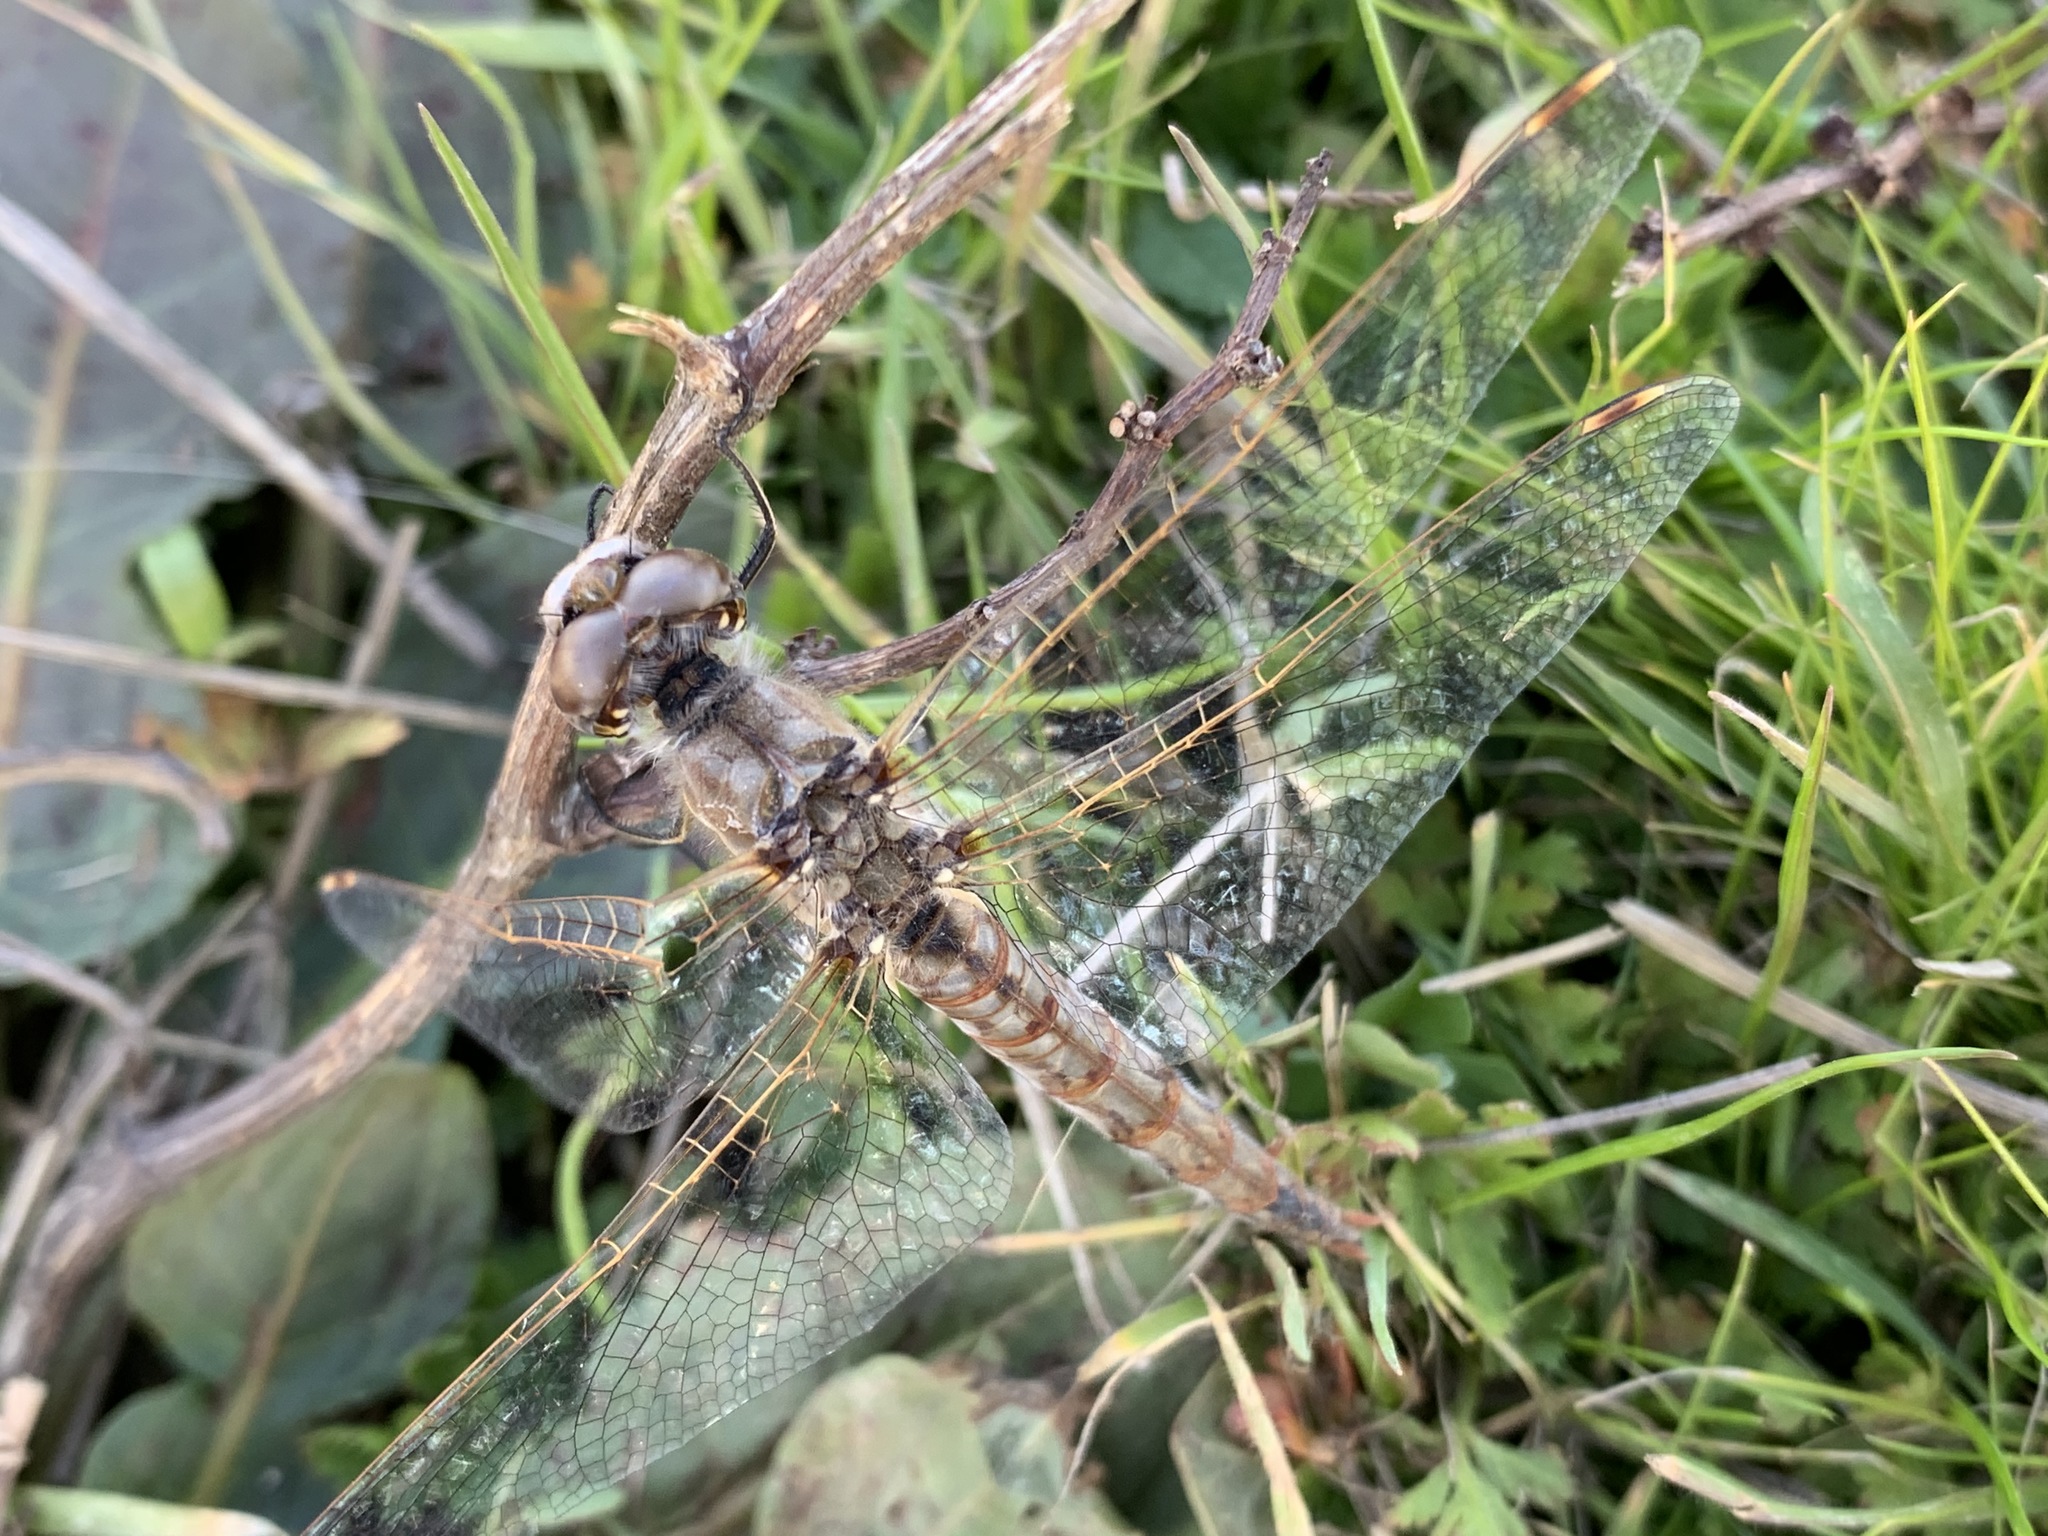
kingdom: Animalia
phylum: Arthropoda
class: Insecta
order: Odonata
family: Libellulidae
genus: Sympetrum
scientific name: Sympetrum corruptum
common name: Variegated meadowhawk
